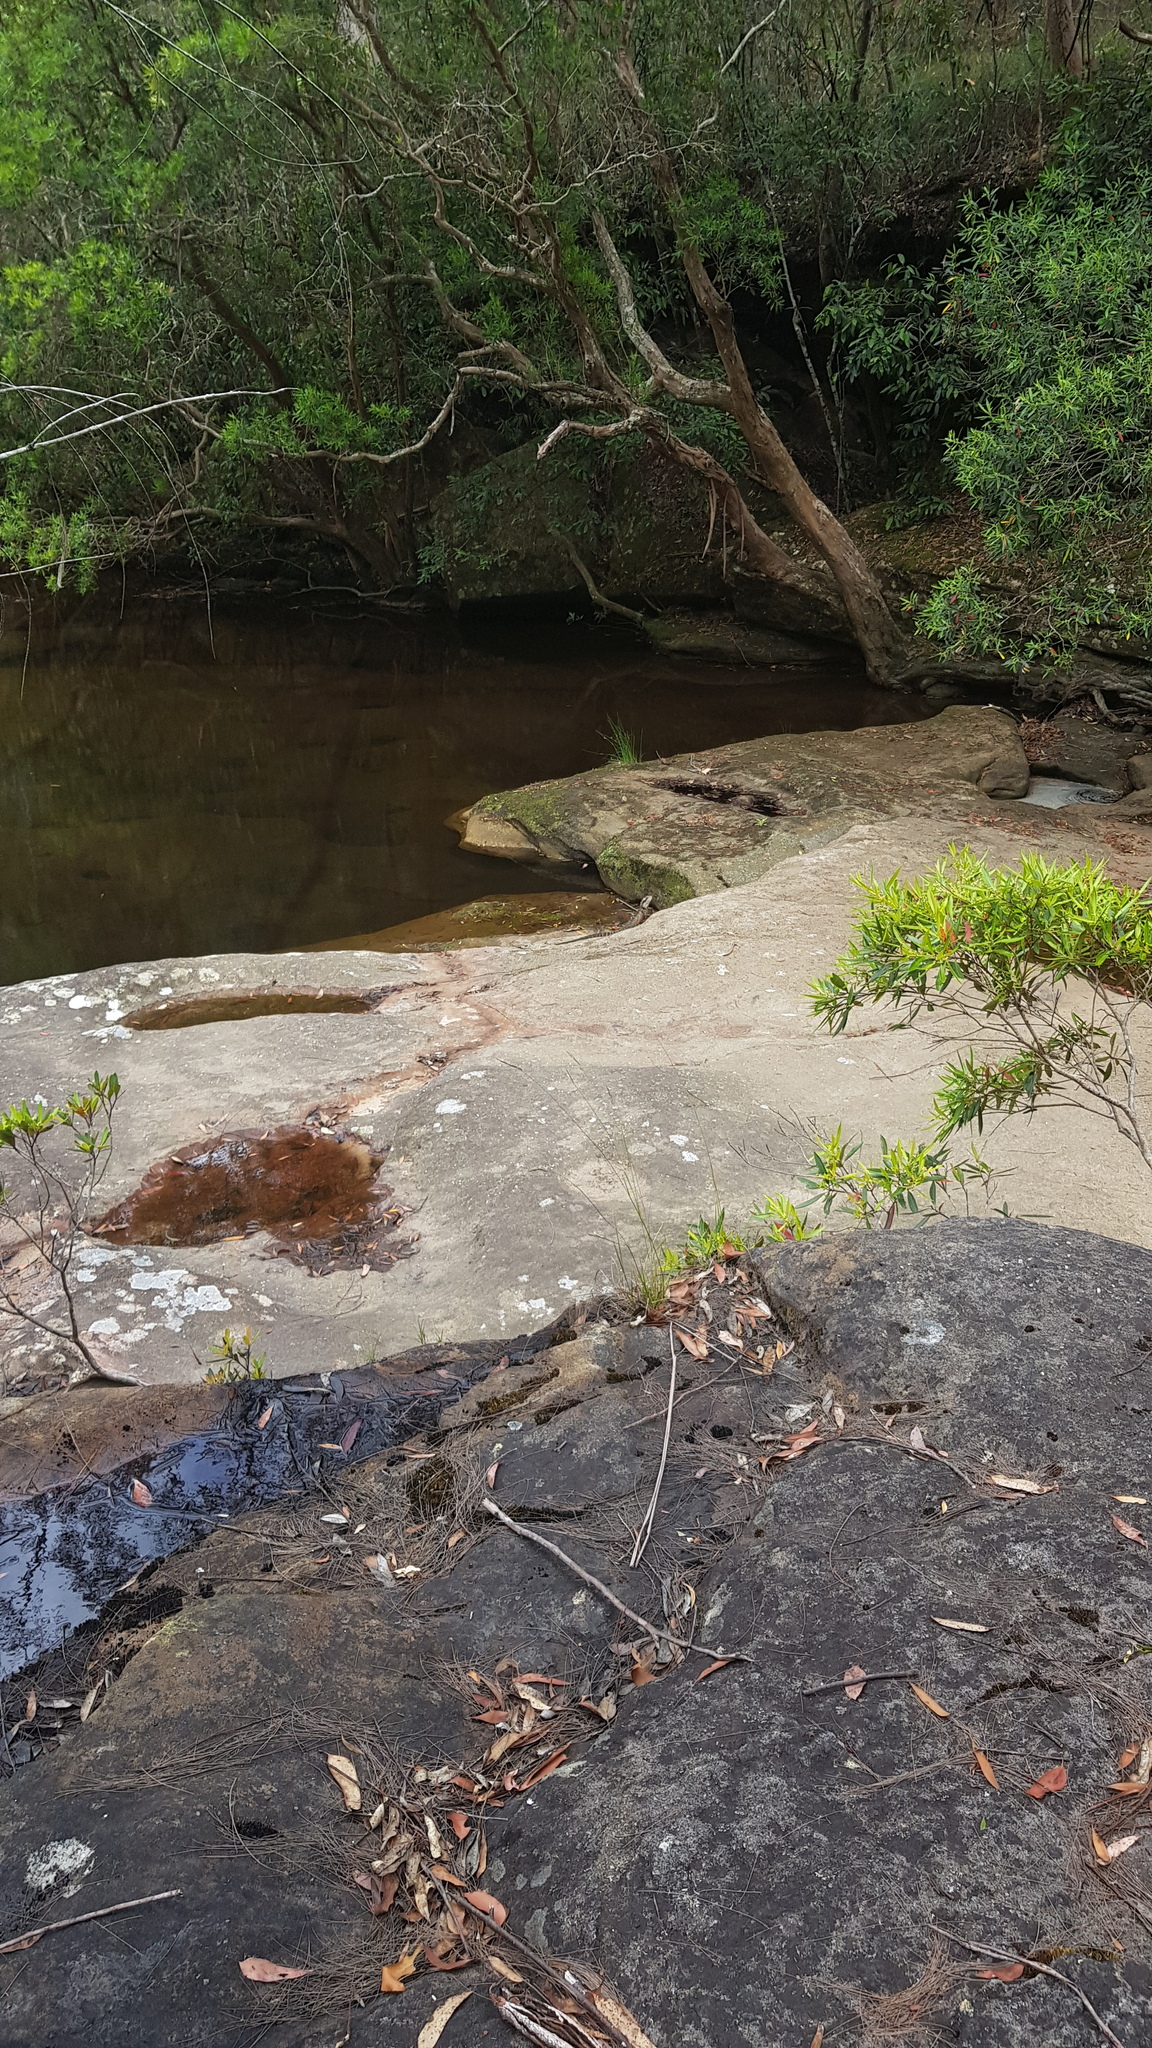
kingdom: Animalia
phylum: Chordata
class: Squamata
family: Agamidae
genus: Intellagama
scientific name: Intellagama lesueurii
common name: Eastern water dragon
